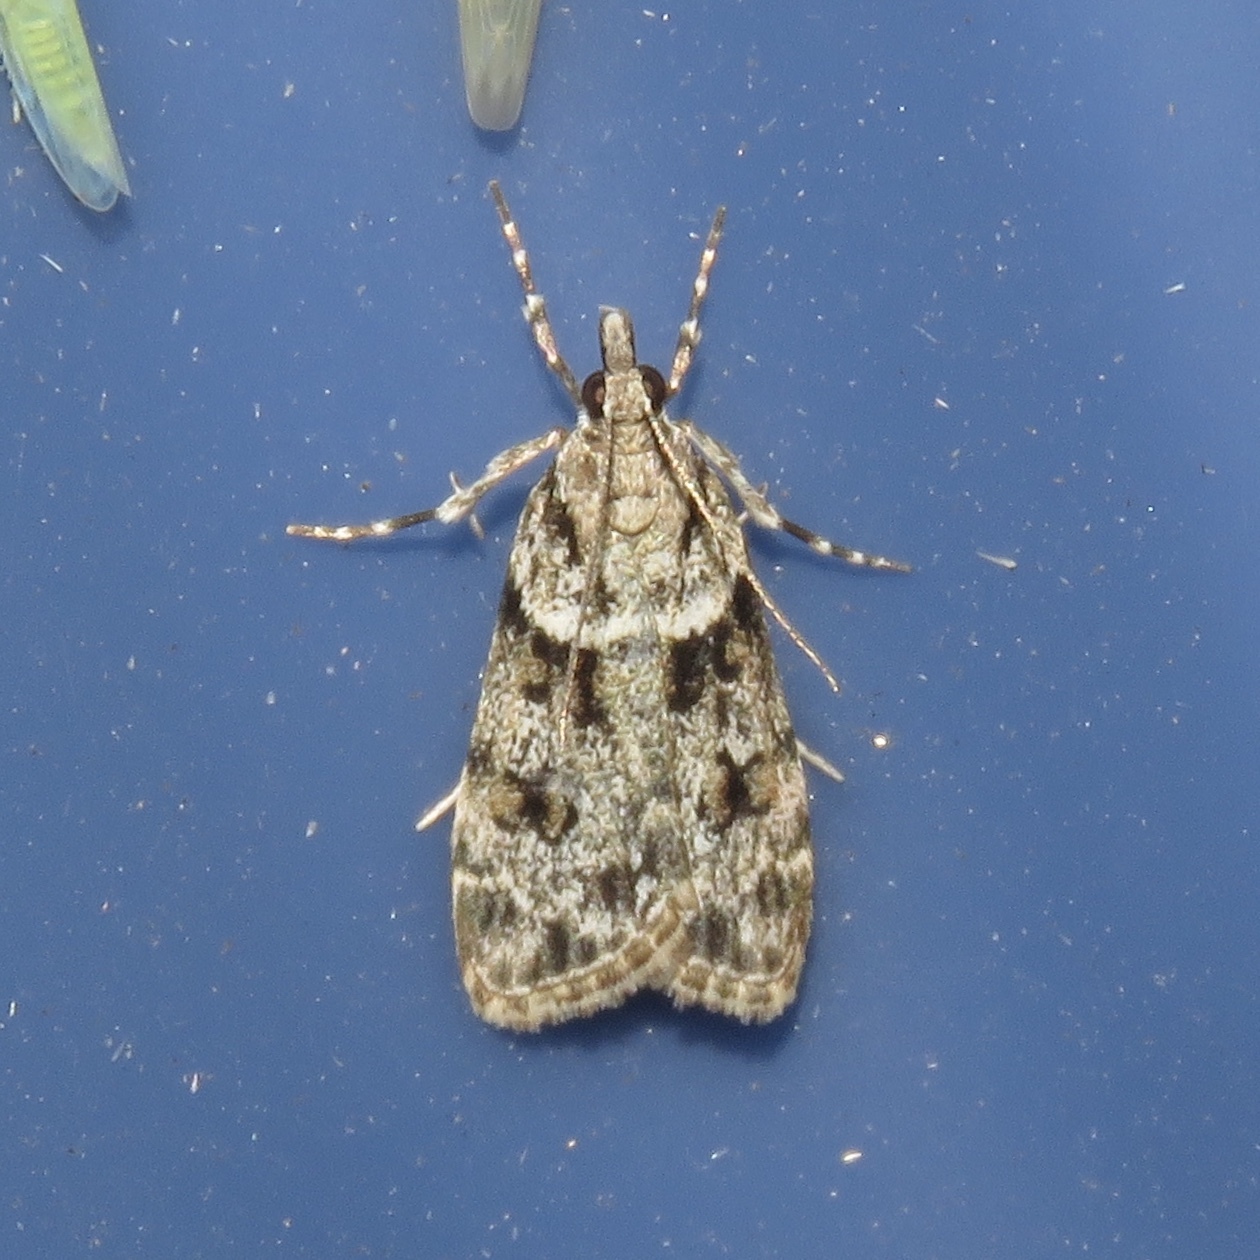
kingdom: Animalia
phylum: Arthropoda
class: Insecta
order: Lepidoptera
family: Crambidae
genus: Scoparia
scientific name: Scoparia biplagialis
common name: Double-striped scoparia moth
